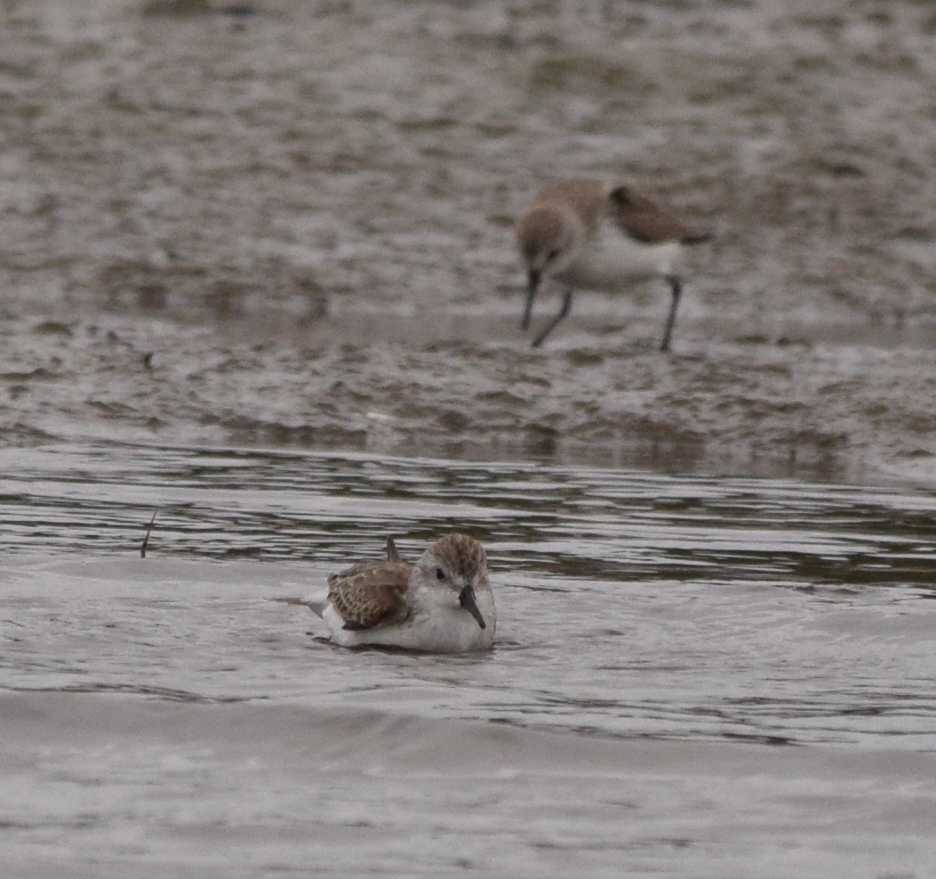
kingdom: Animalia
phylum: Chordata
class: Aves
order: Charadriiformes
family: Scolopacidae
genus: Calidris
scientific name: Calidris mauri
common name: Western sandpiper
